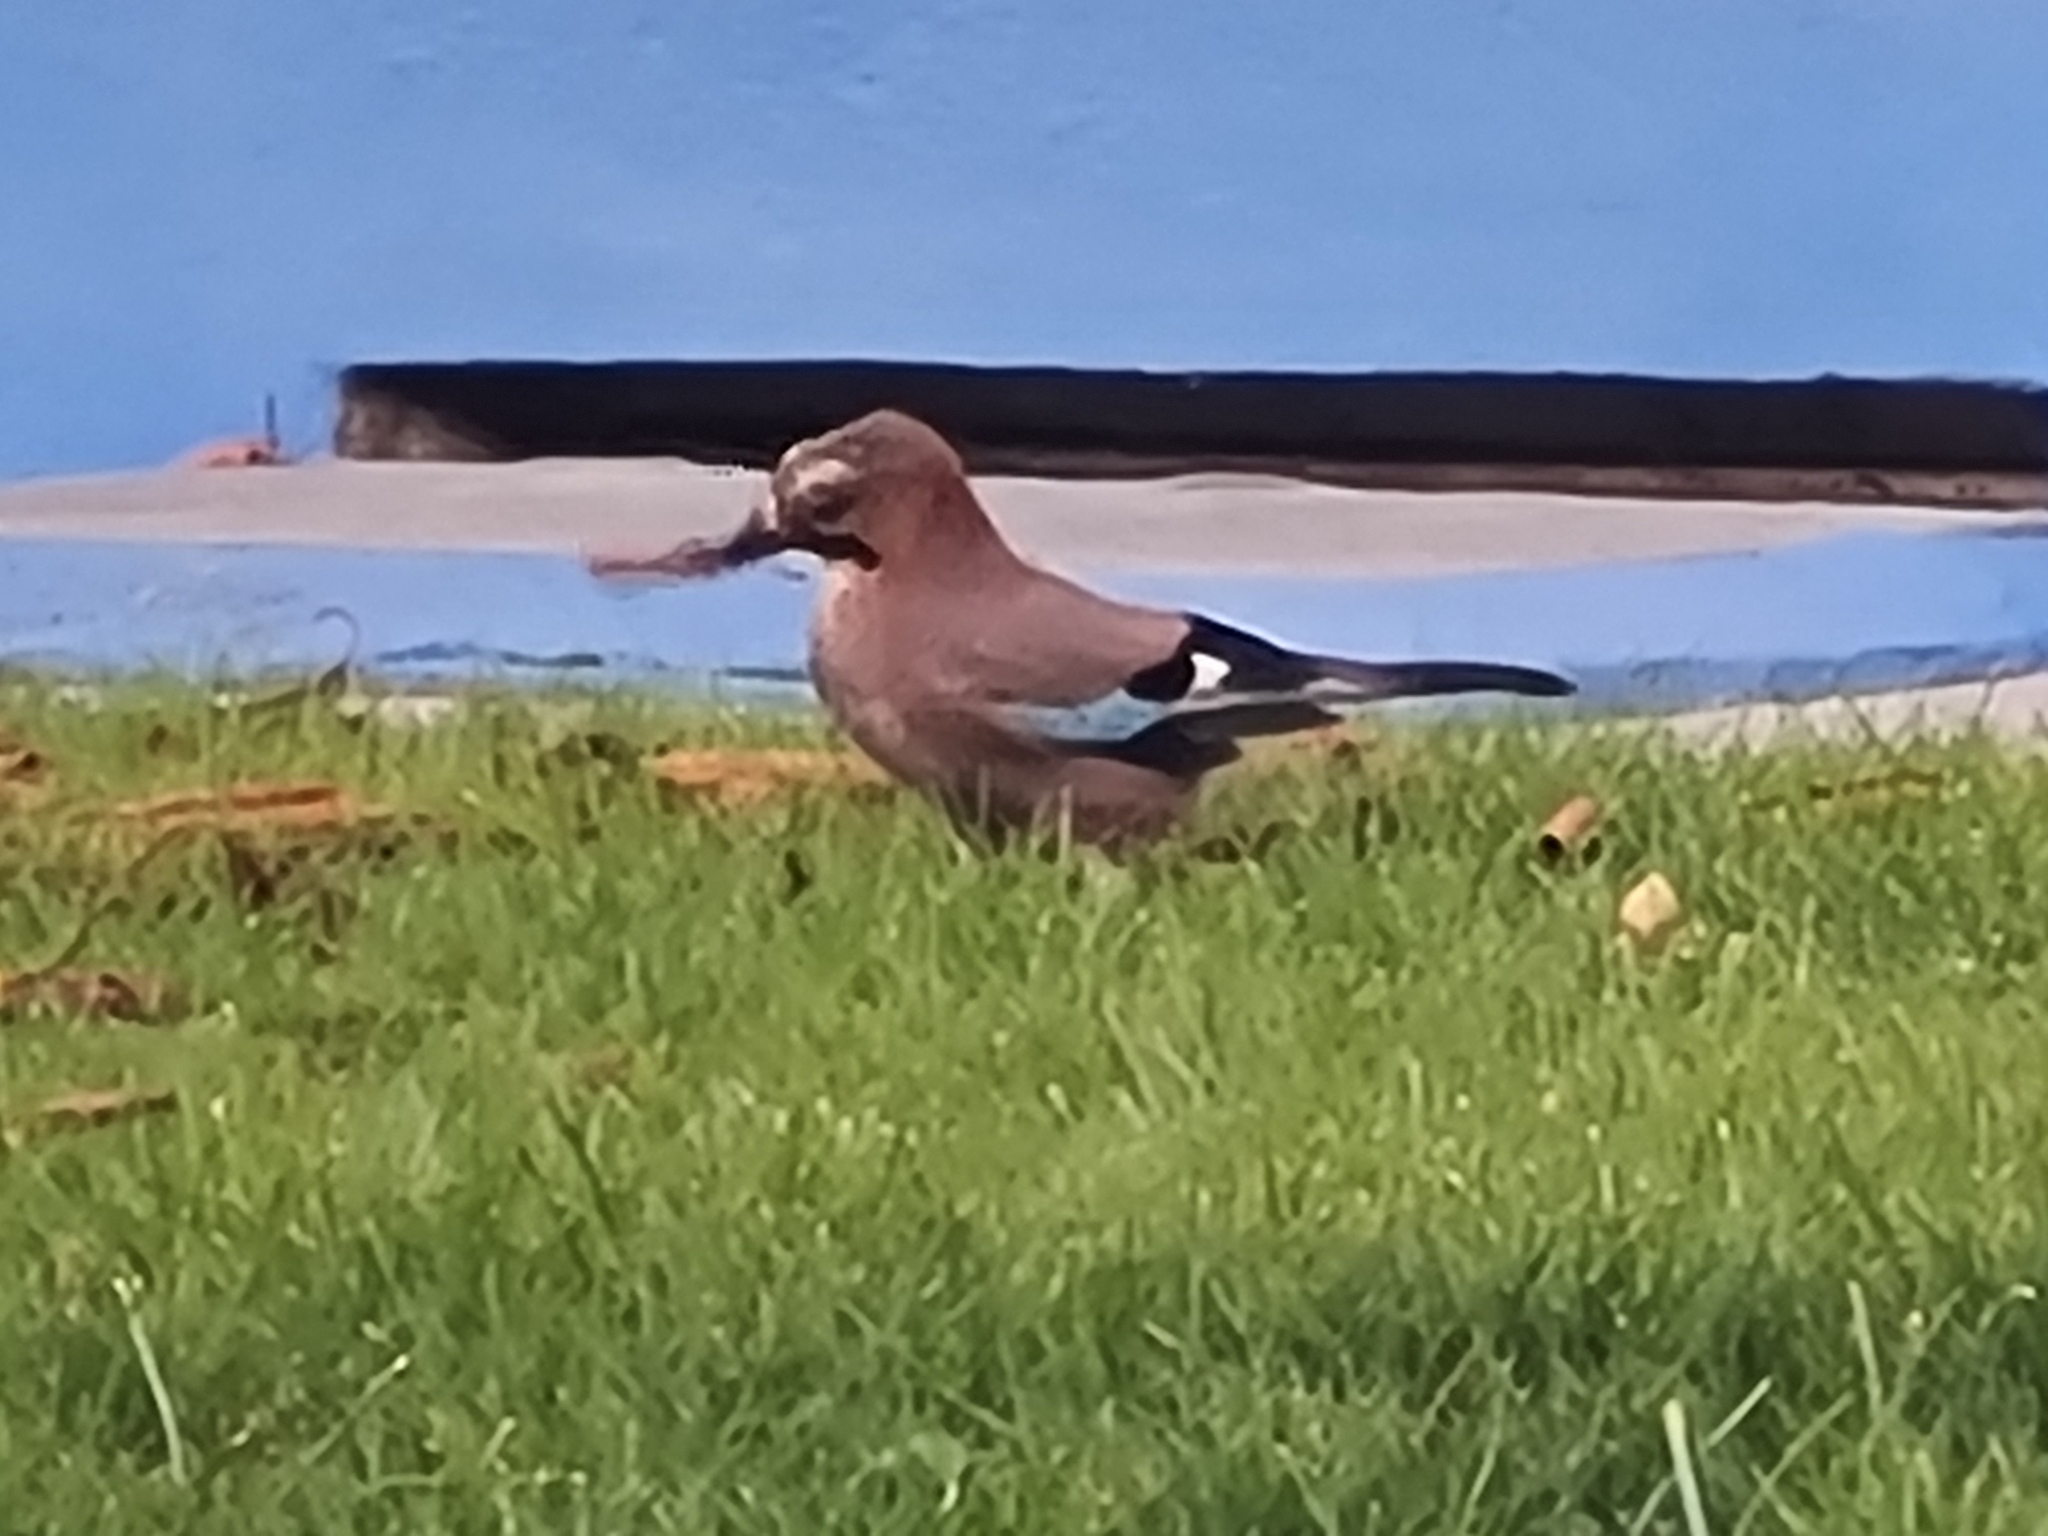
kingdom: Animalia
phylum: Chordata
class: Aves
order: Passeriformes
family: Corvidae
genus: Garrulus
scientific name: Garrulus glandarius
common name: Eurasian jay
